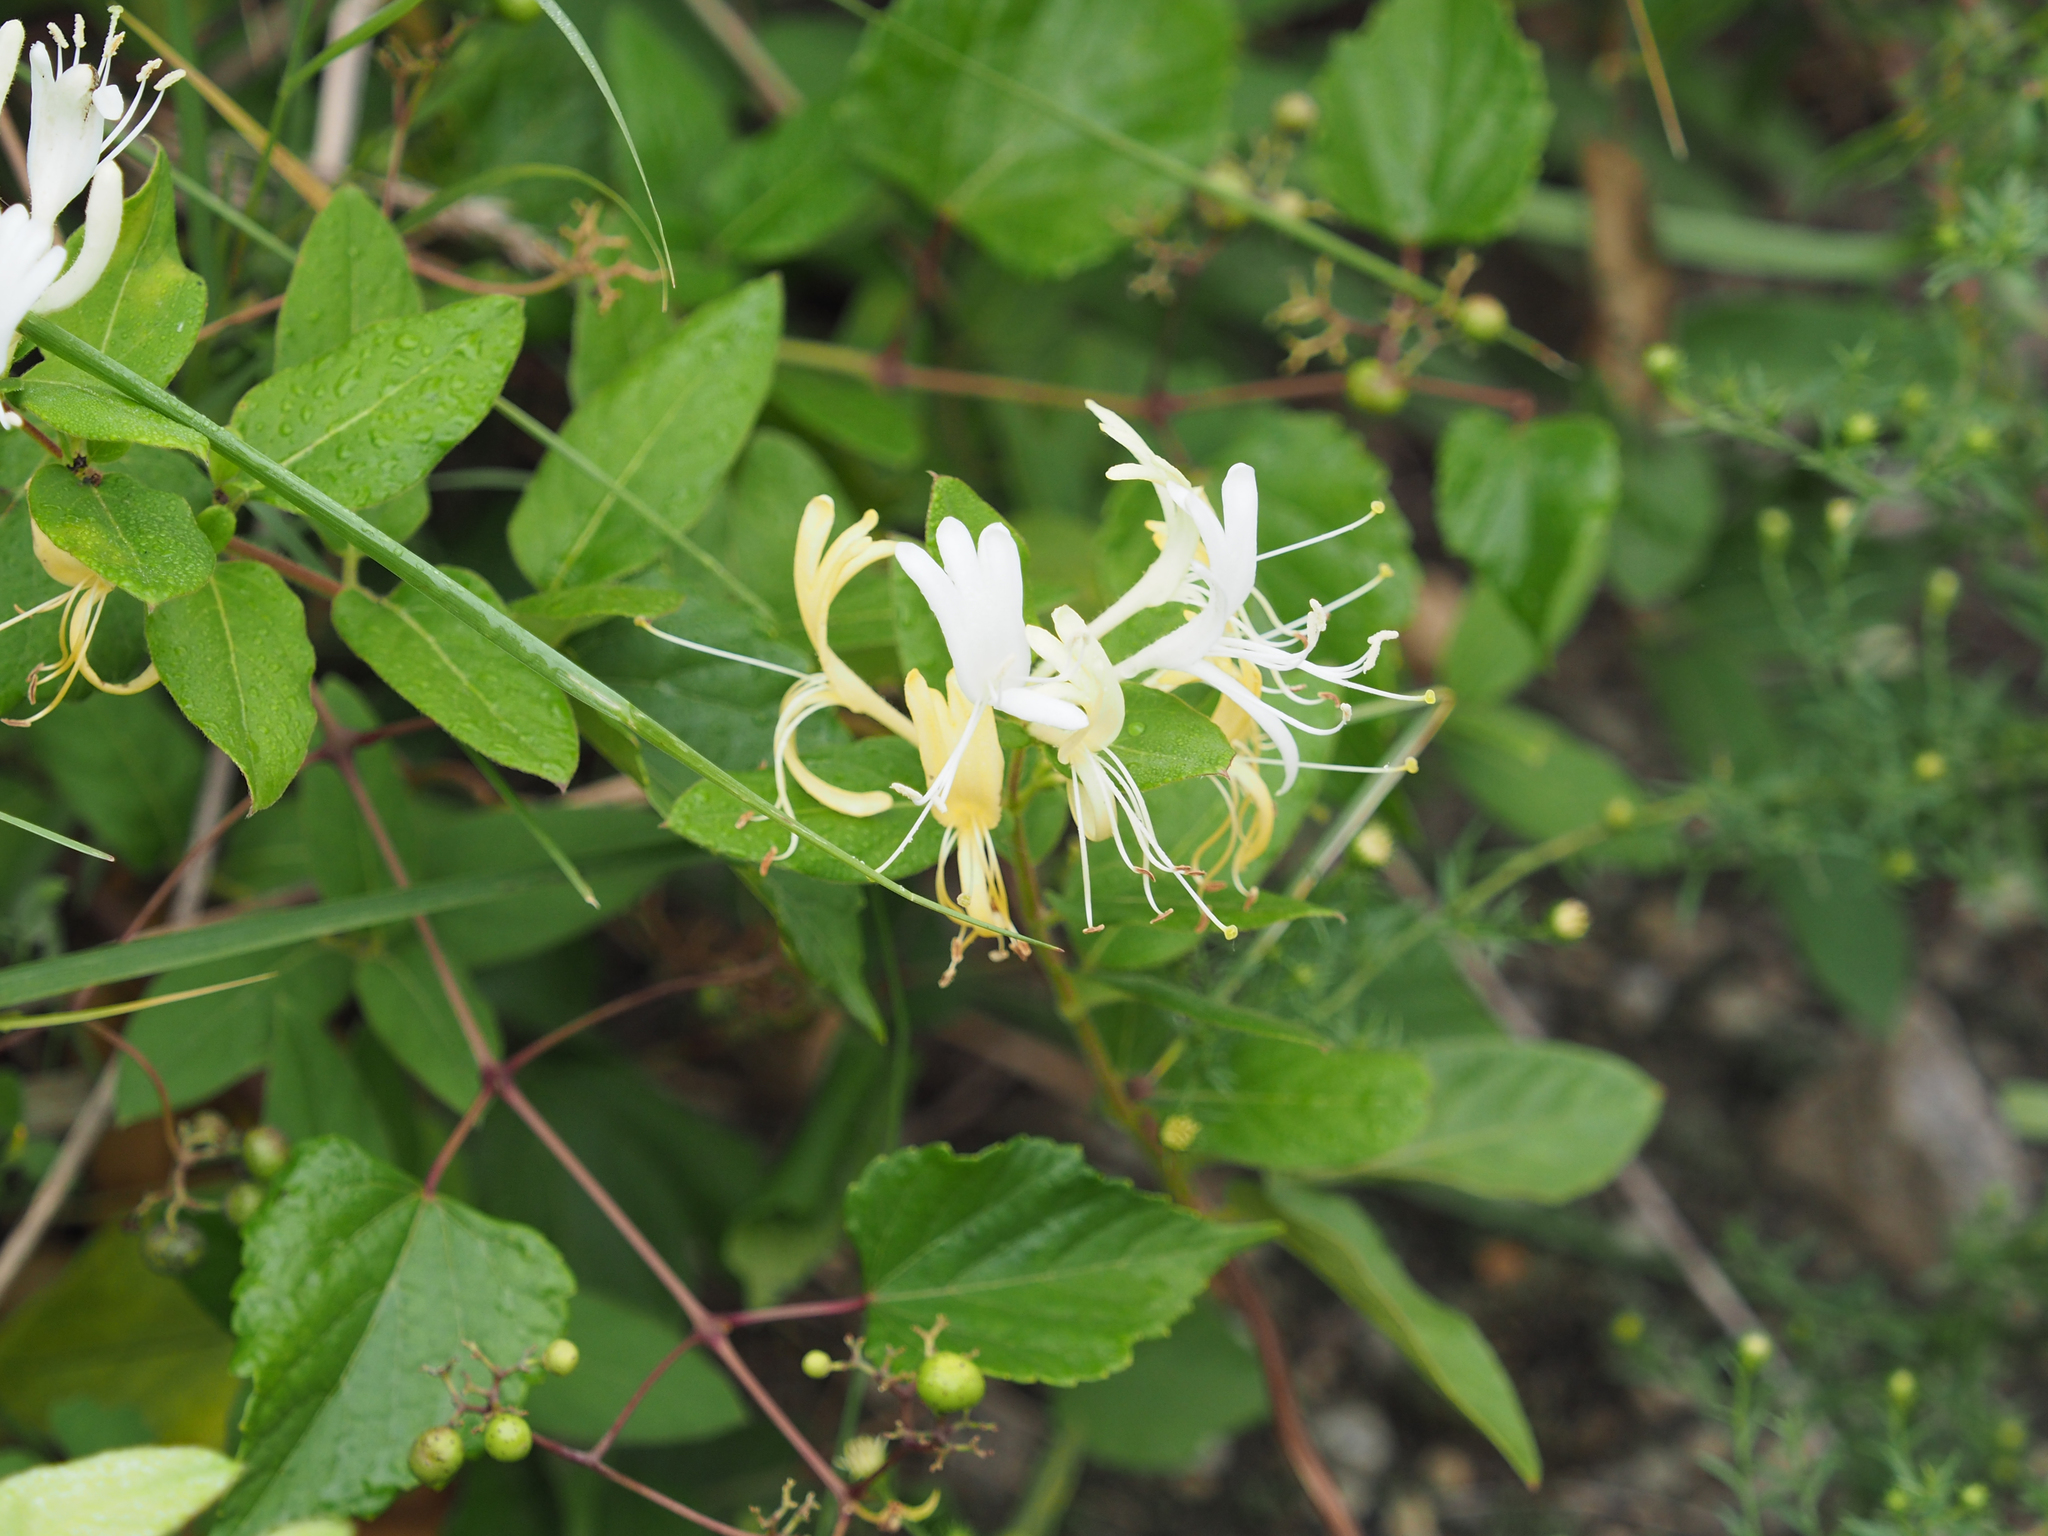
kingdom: Plantae
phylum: Tracheophyta
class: Magnoliopsida
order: Dipsacales
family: Caprifoliaceae
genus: Lonicera
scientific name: Lonicera japonica
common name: Japanese honeysuckle
